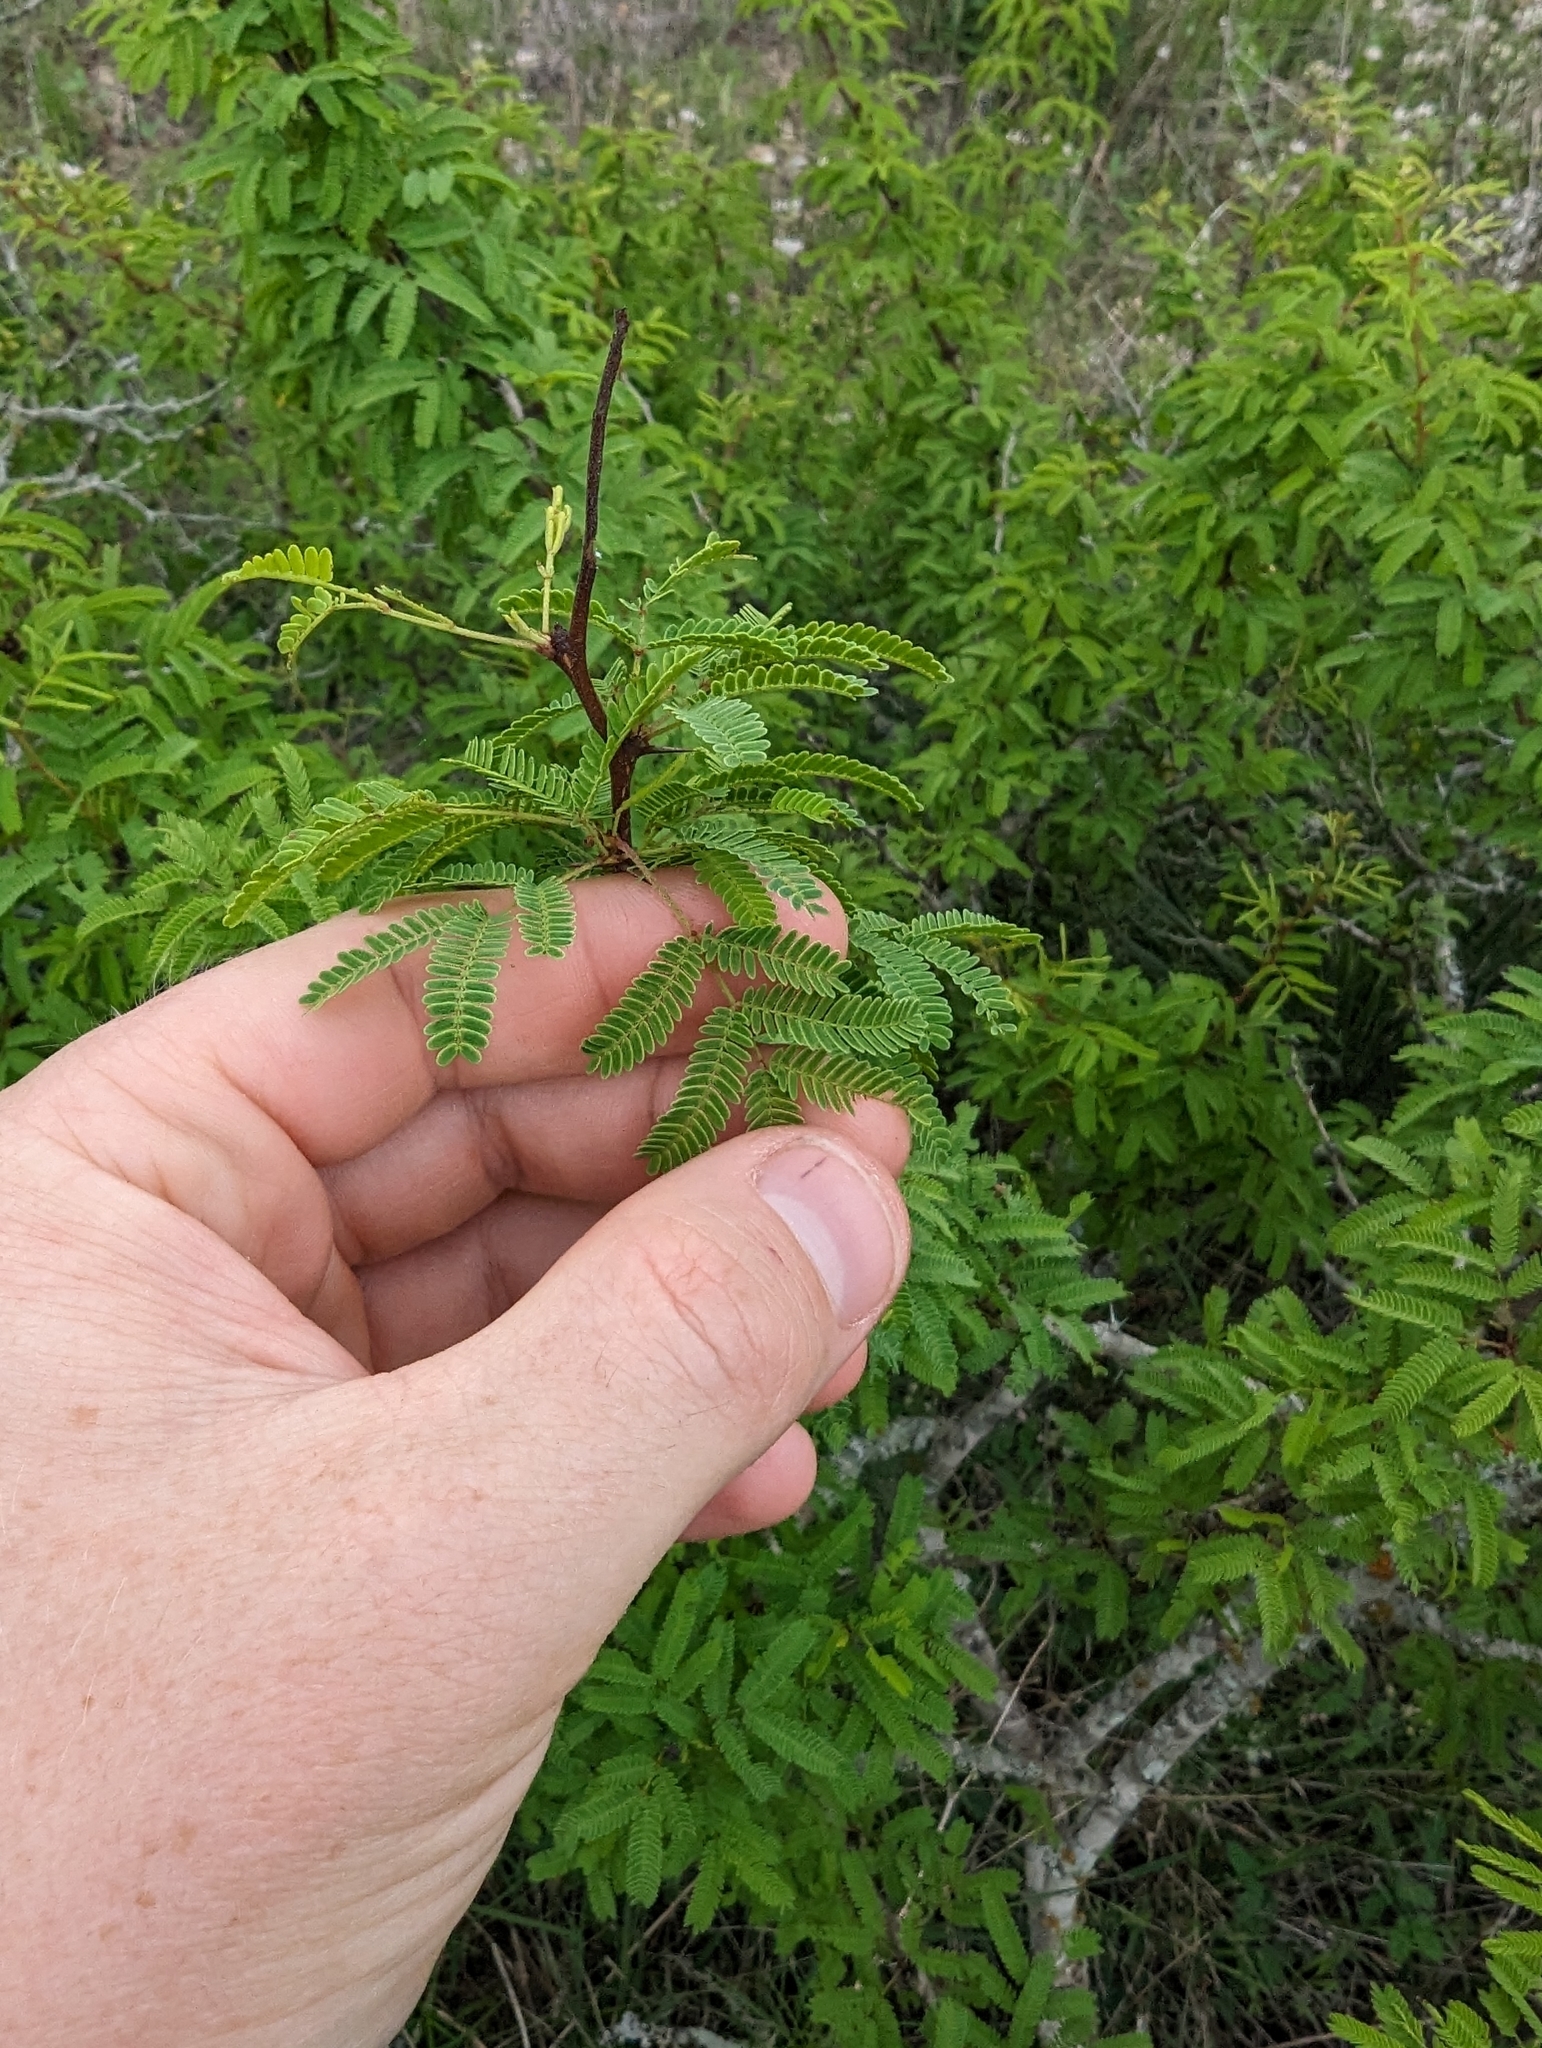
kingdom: Plantae
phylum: Tracheophyta
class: Magnoliopsida
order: Fabales
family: Fabaceae
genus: Vachellia
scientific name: Vachellia schaffneri
